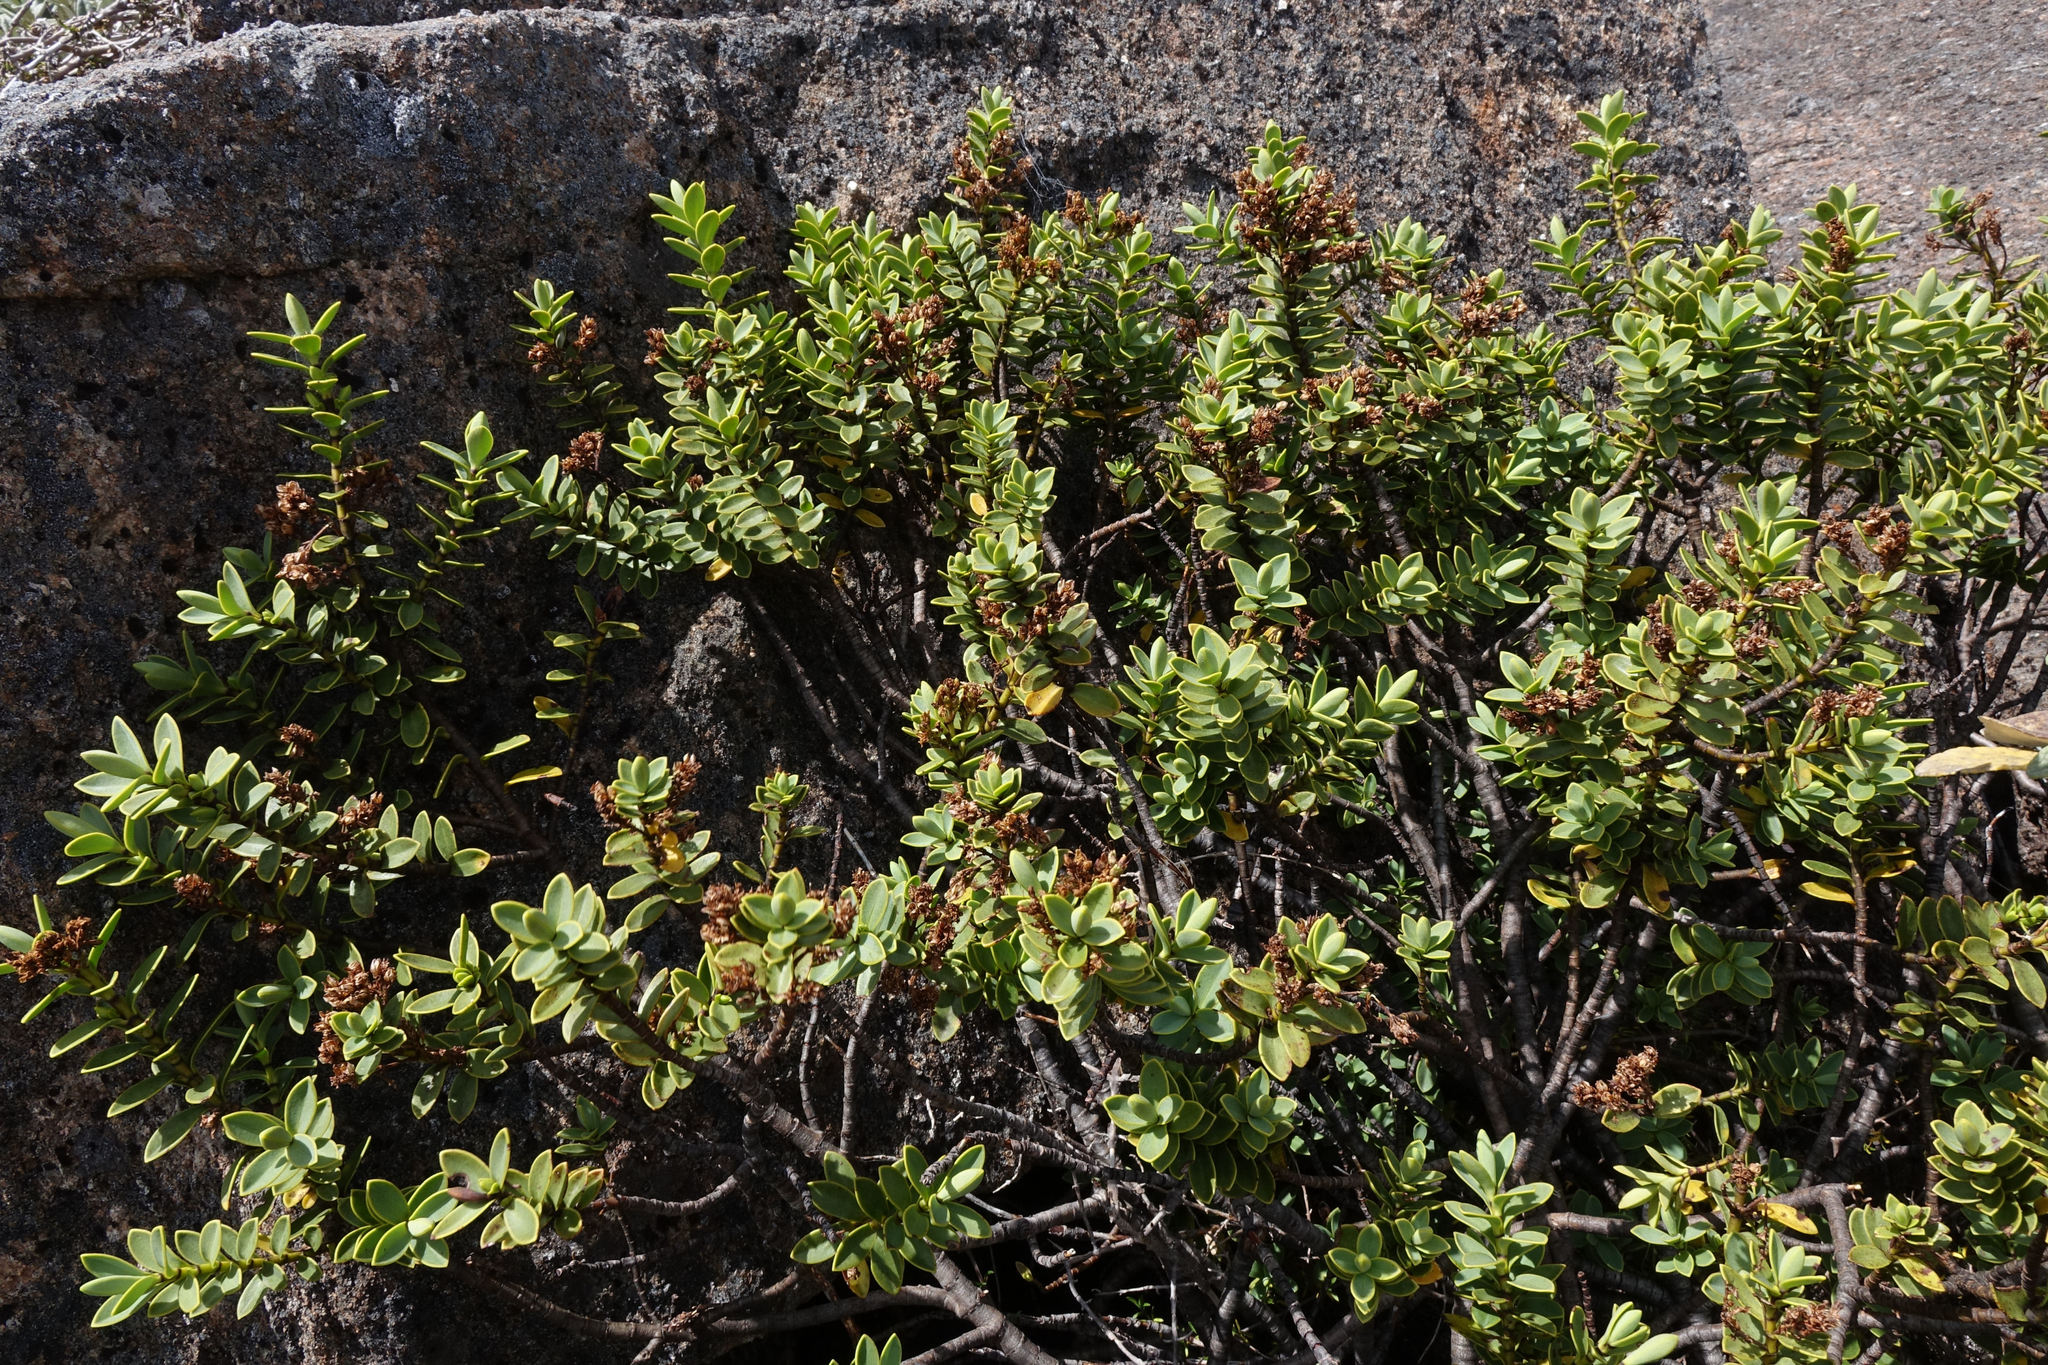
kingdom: Plantae
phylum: Tracheophyta
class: Magnoliopsida
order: Lamiales
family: Plantaginaceae
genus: Veronica
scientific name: Veronica dilatata
